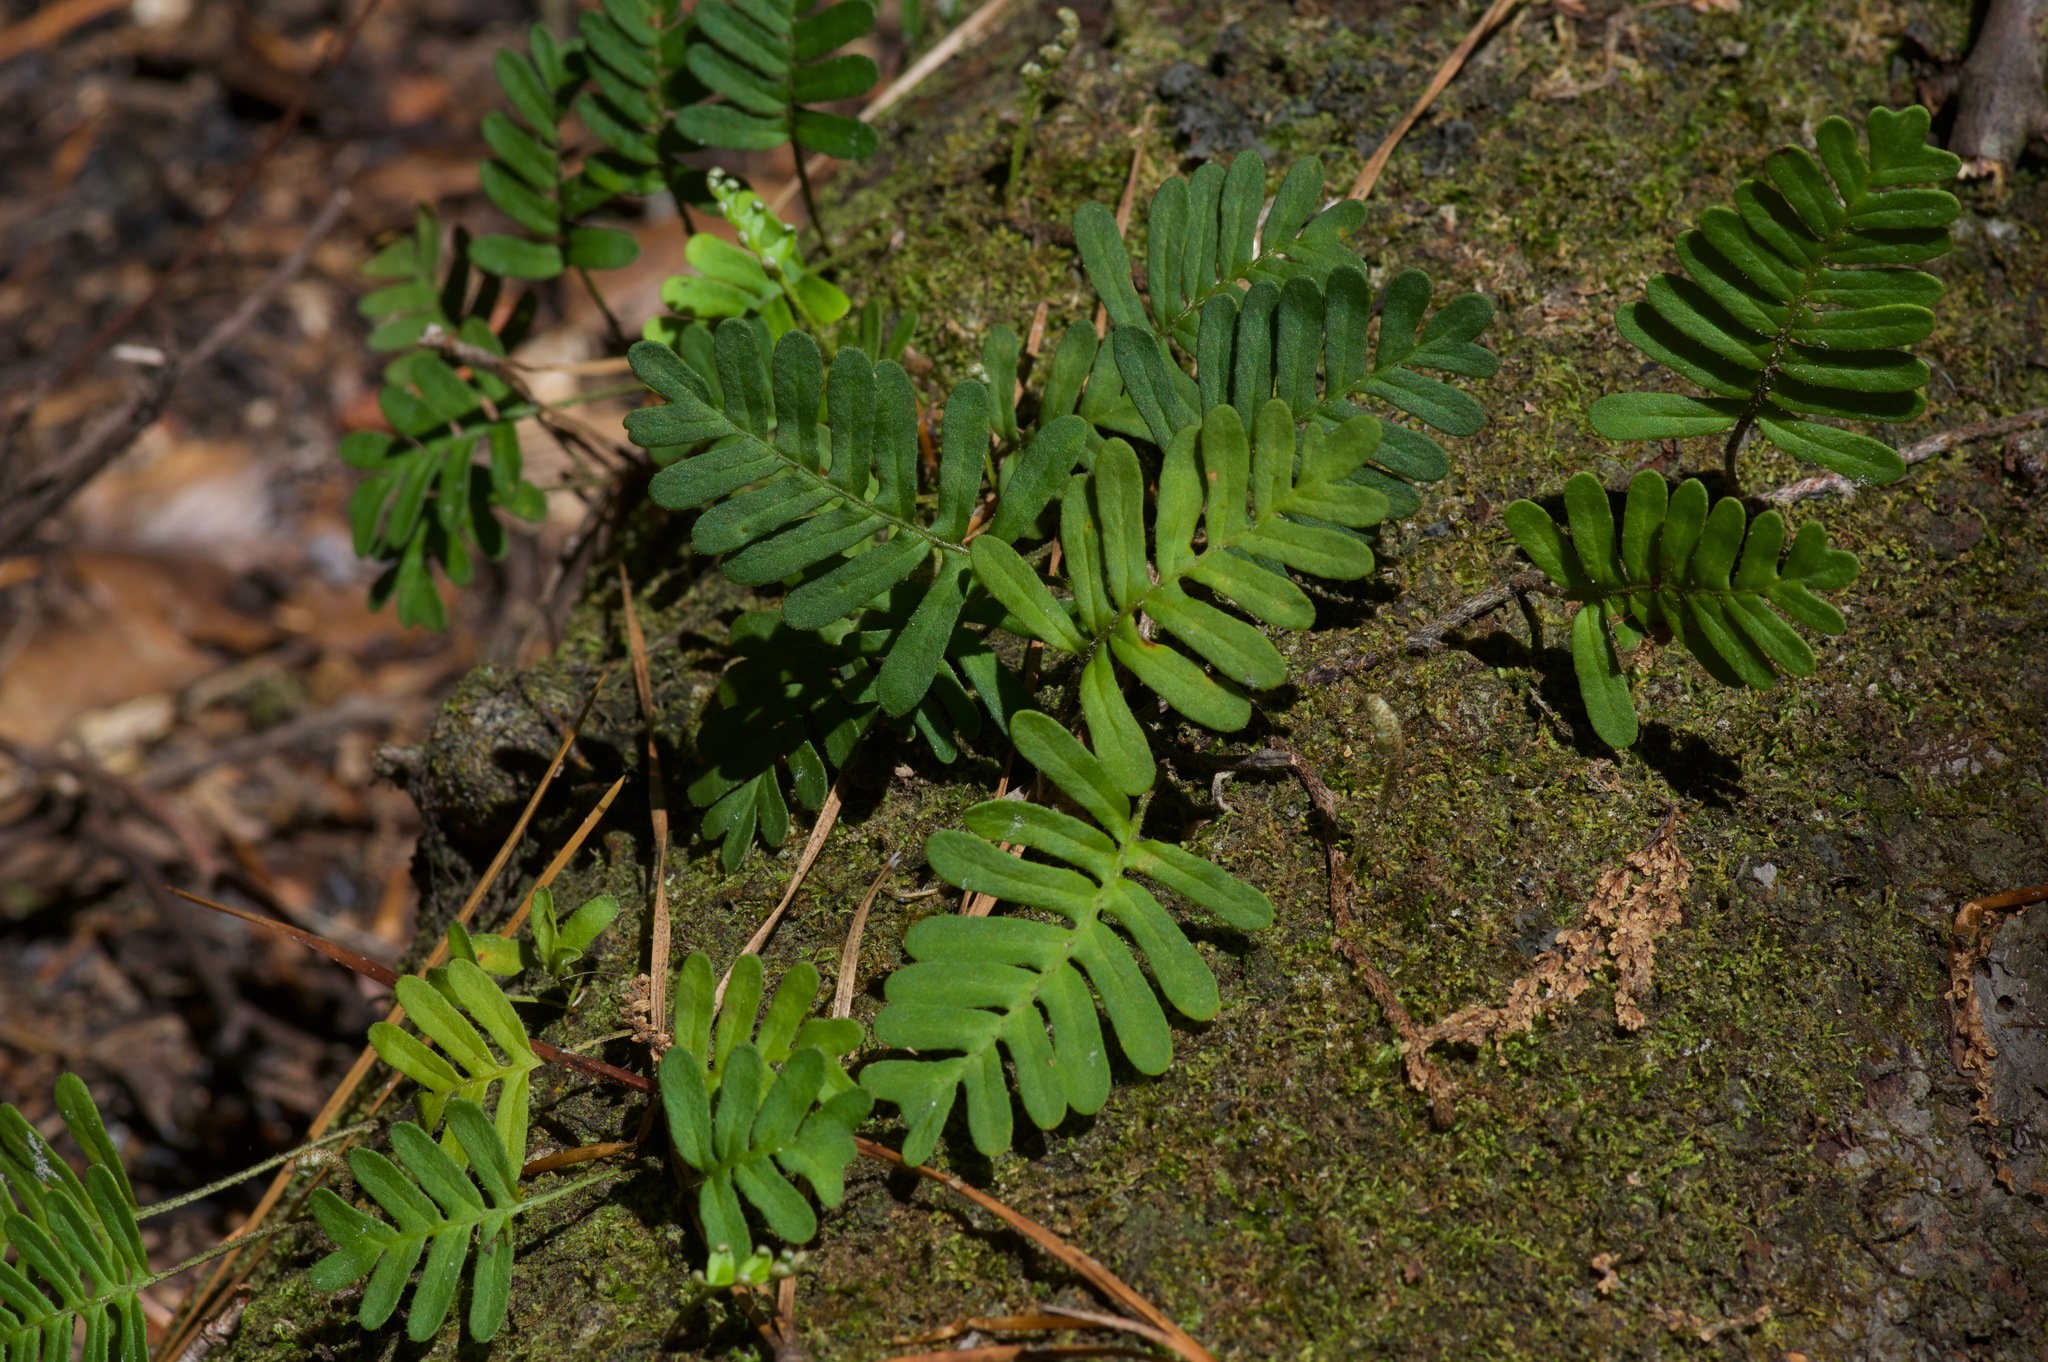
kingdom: Plantae
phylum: Tracheophyta
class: Polypodiopsida
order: Polypodiales
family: Polypodiaceae
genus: Pleopeltis
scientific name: Pleopeltis michauxiana
